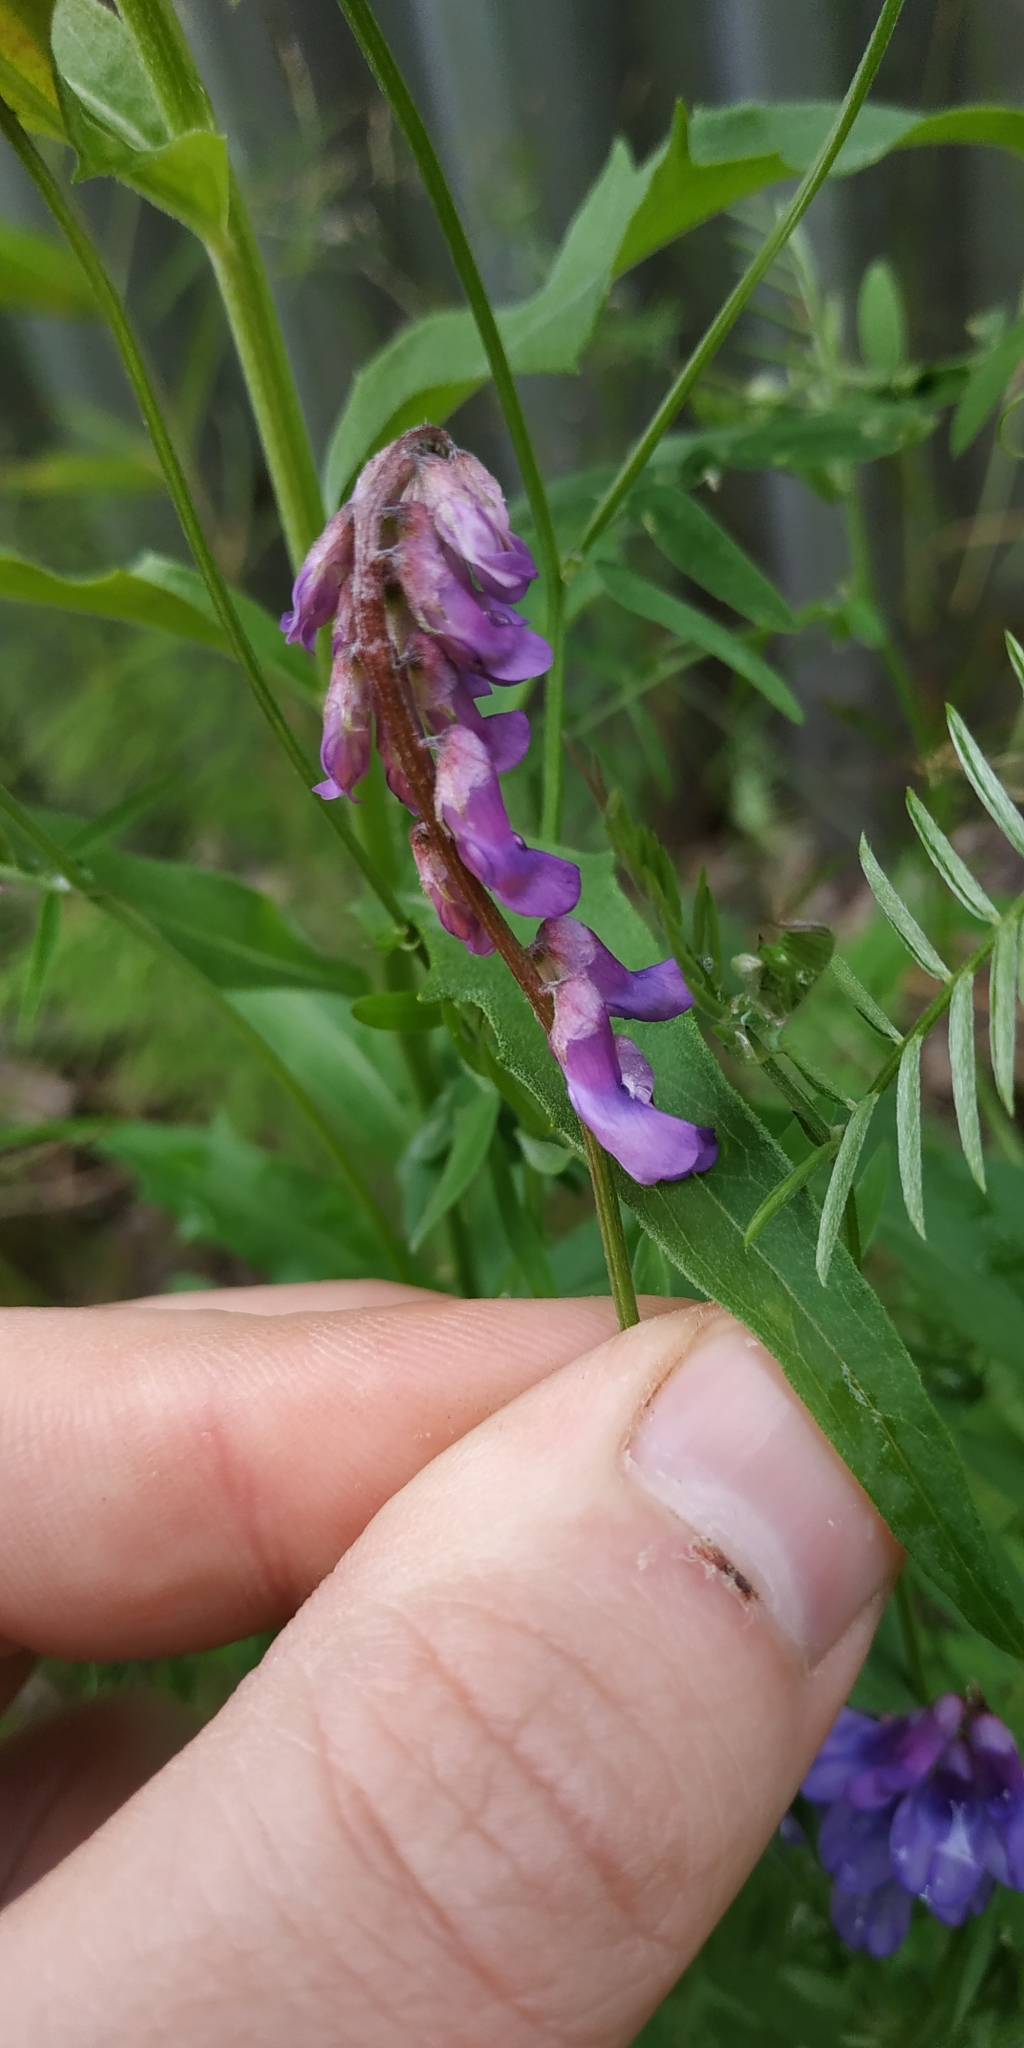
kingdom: Plantae
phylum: Tracheophyta
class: Magnoliopsida
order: Fabales
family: Fabaceae
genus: Vicia
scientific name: Vicia cracca
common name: Bird vetch
